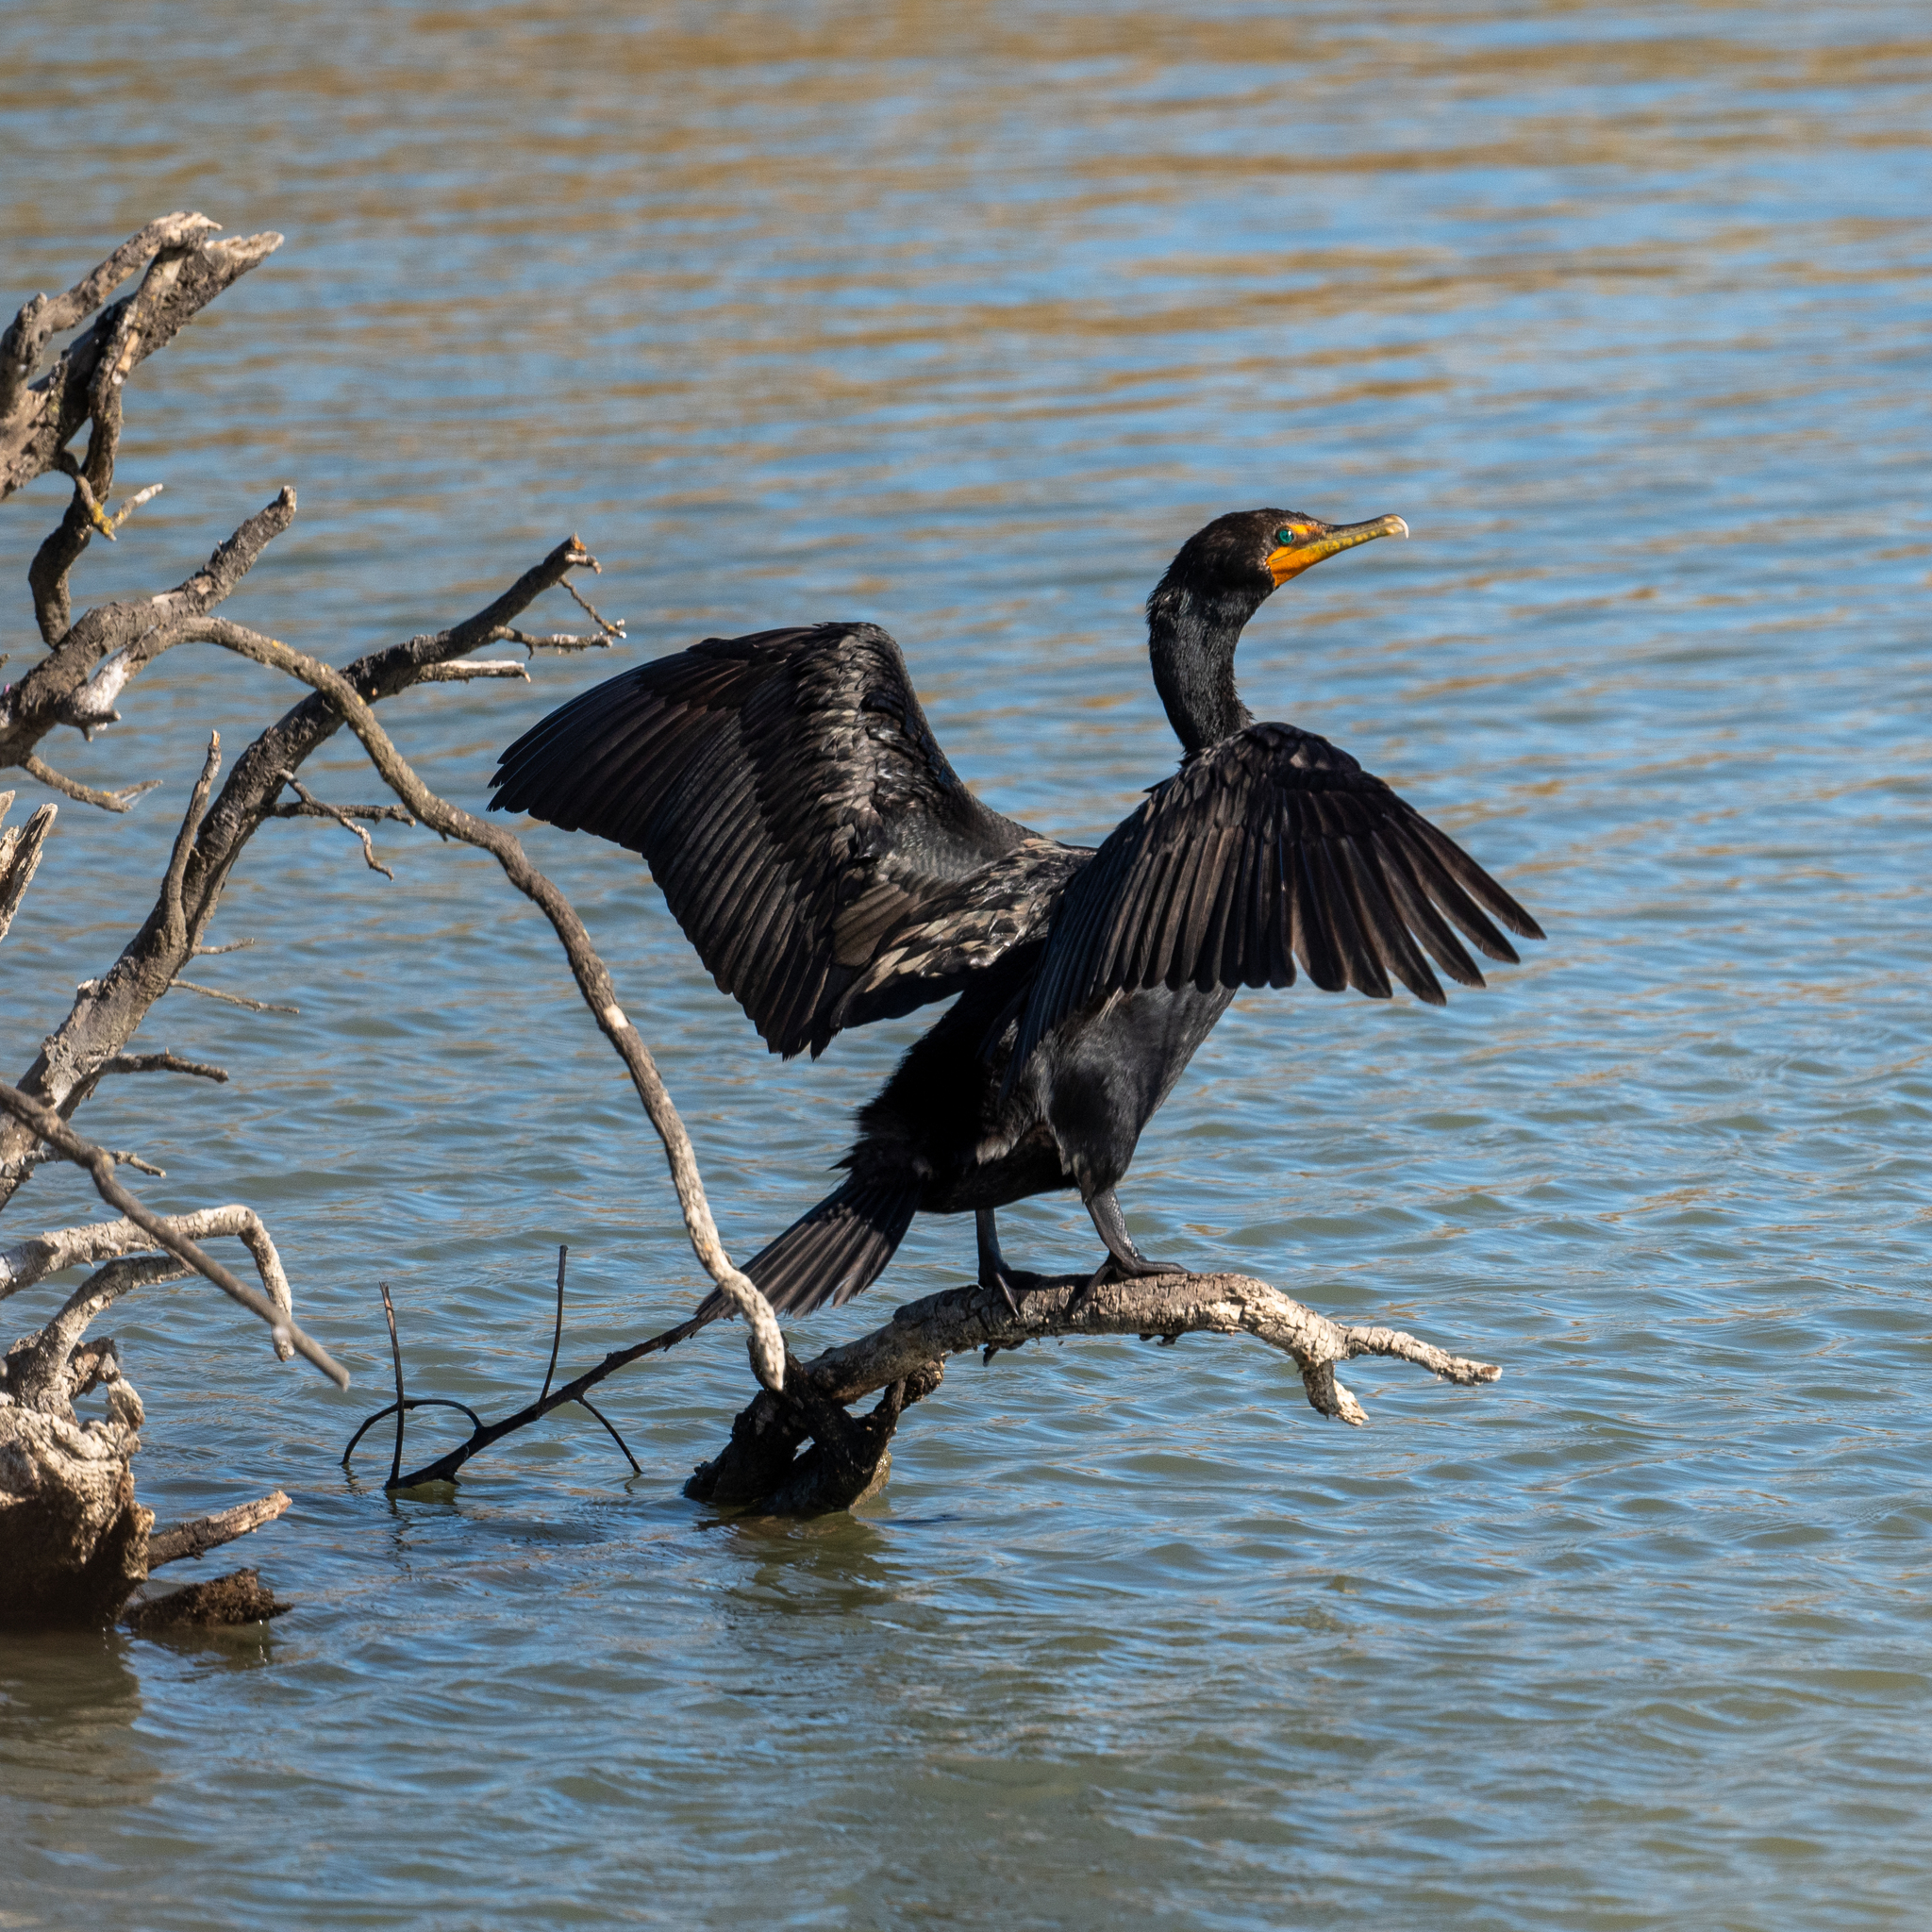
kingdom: Animalia
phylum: Chordata
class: Aves
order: Suliformes
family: Phalacrocoracidae
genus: Phalacrocorax
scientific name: Phalacrocorax auritus
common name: Double-crested cormorant
